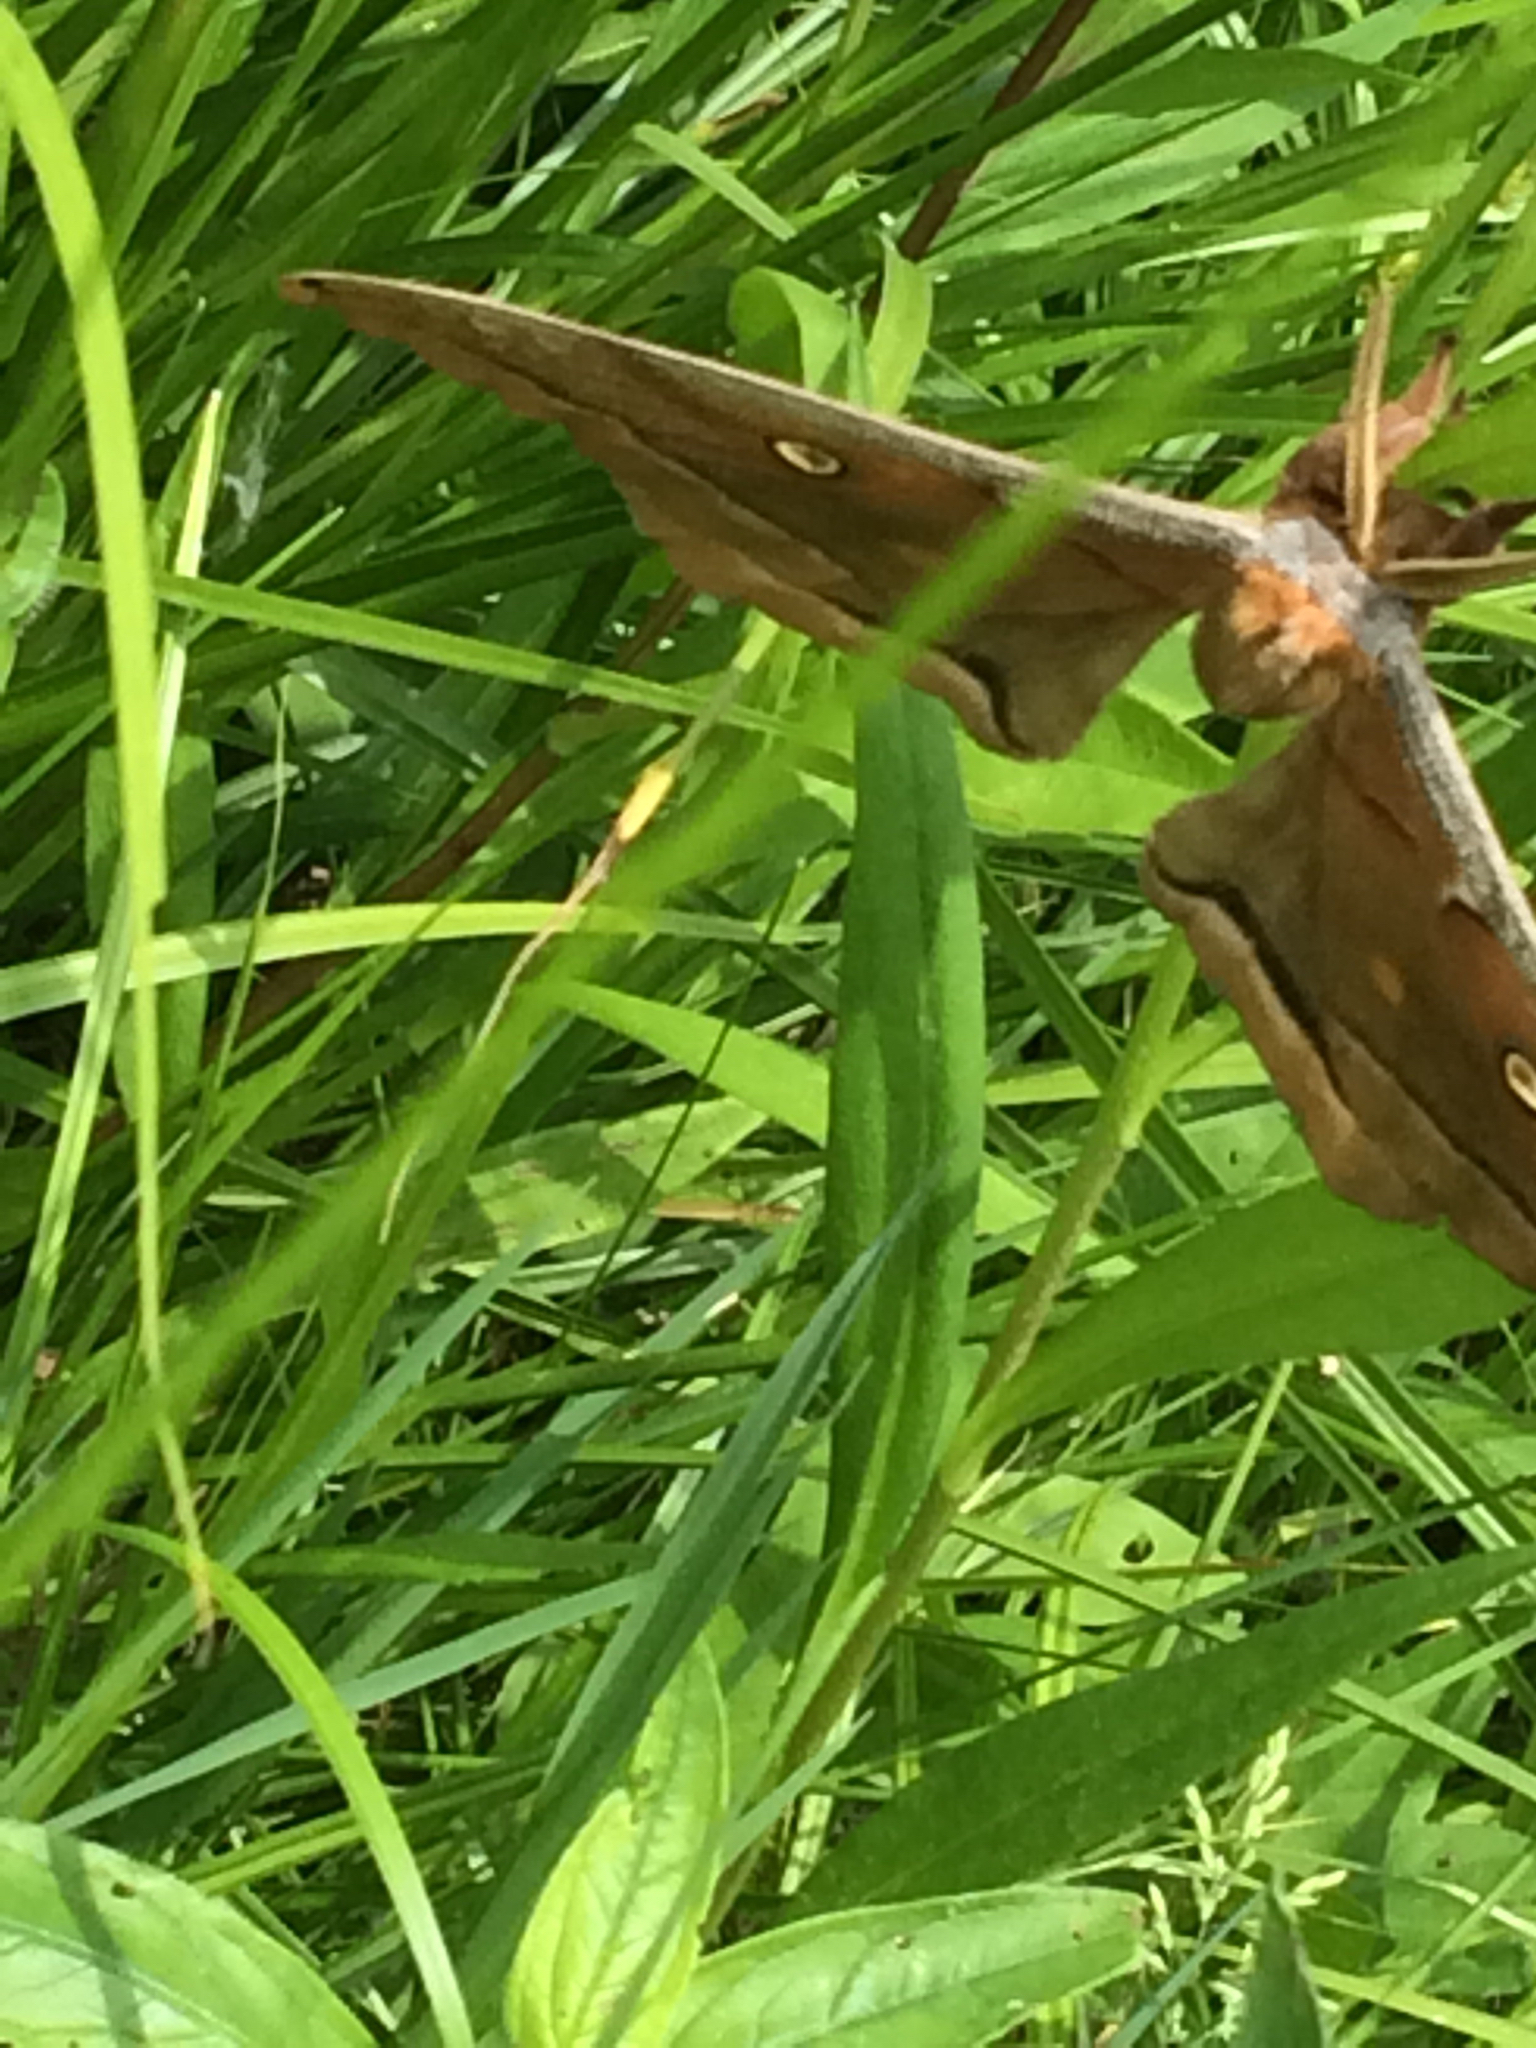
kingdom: Animalia
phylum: Arthropoda
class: Insecta
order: Lepidoptera
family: Saturniidae
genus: Antheraea
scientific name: Antheraea polyphemus
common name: Polyphemus moth
